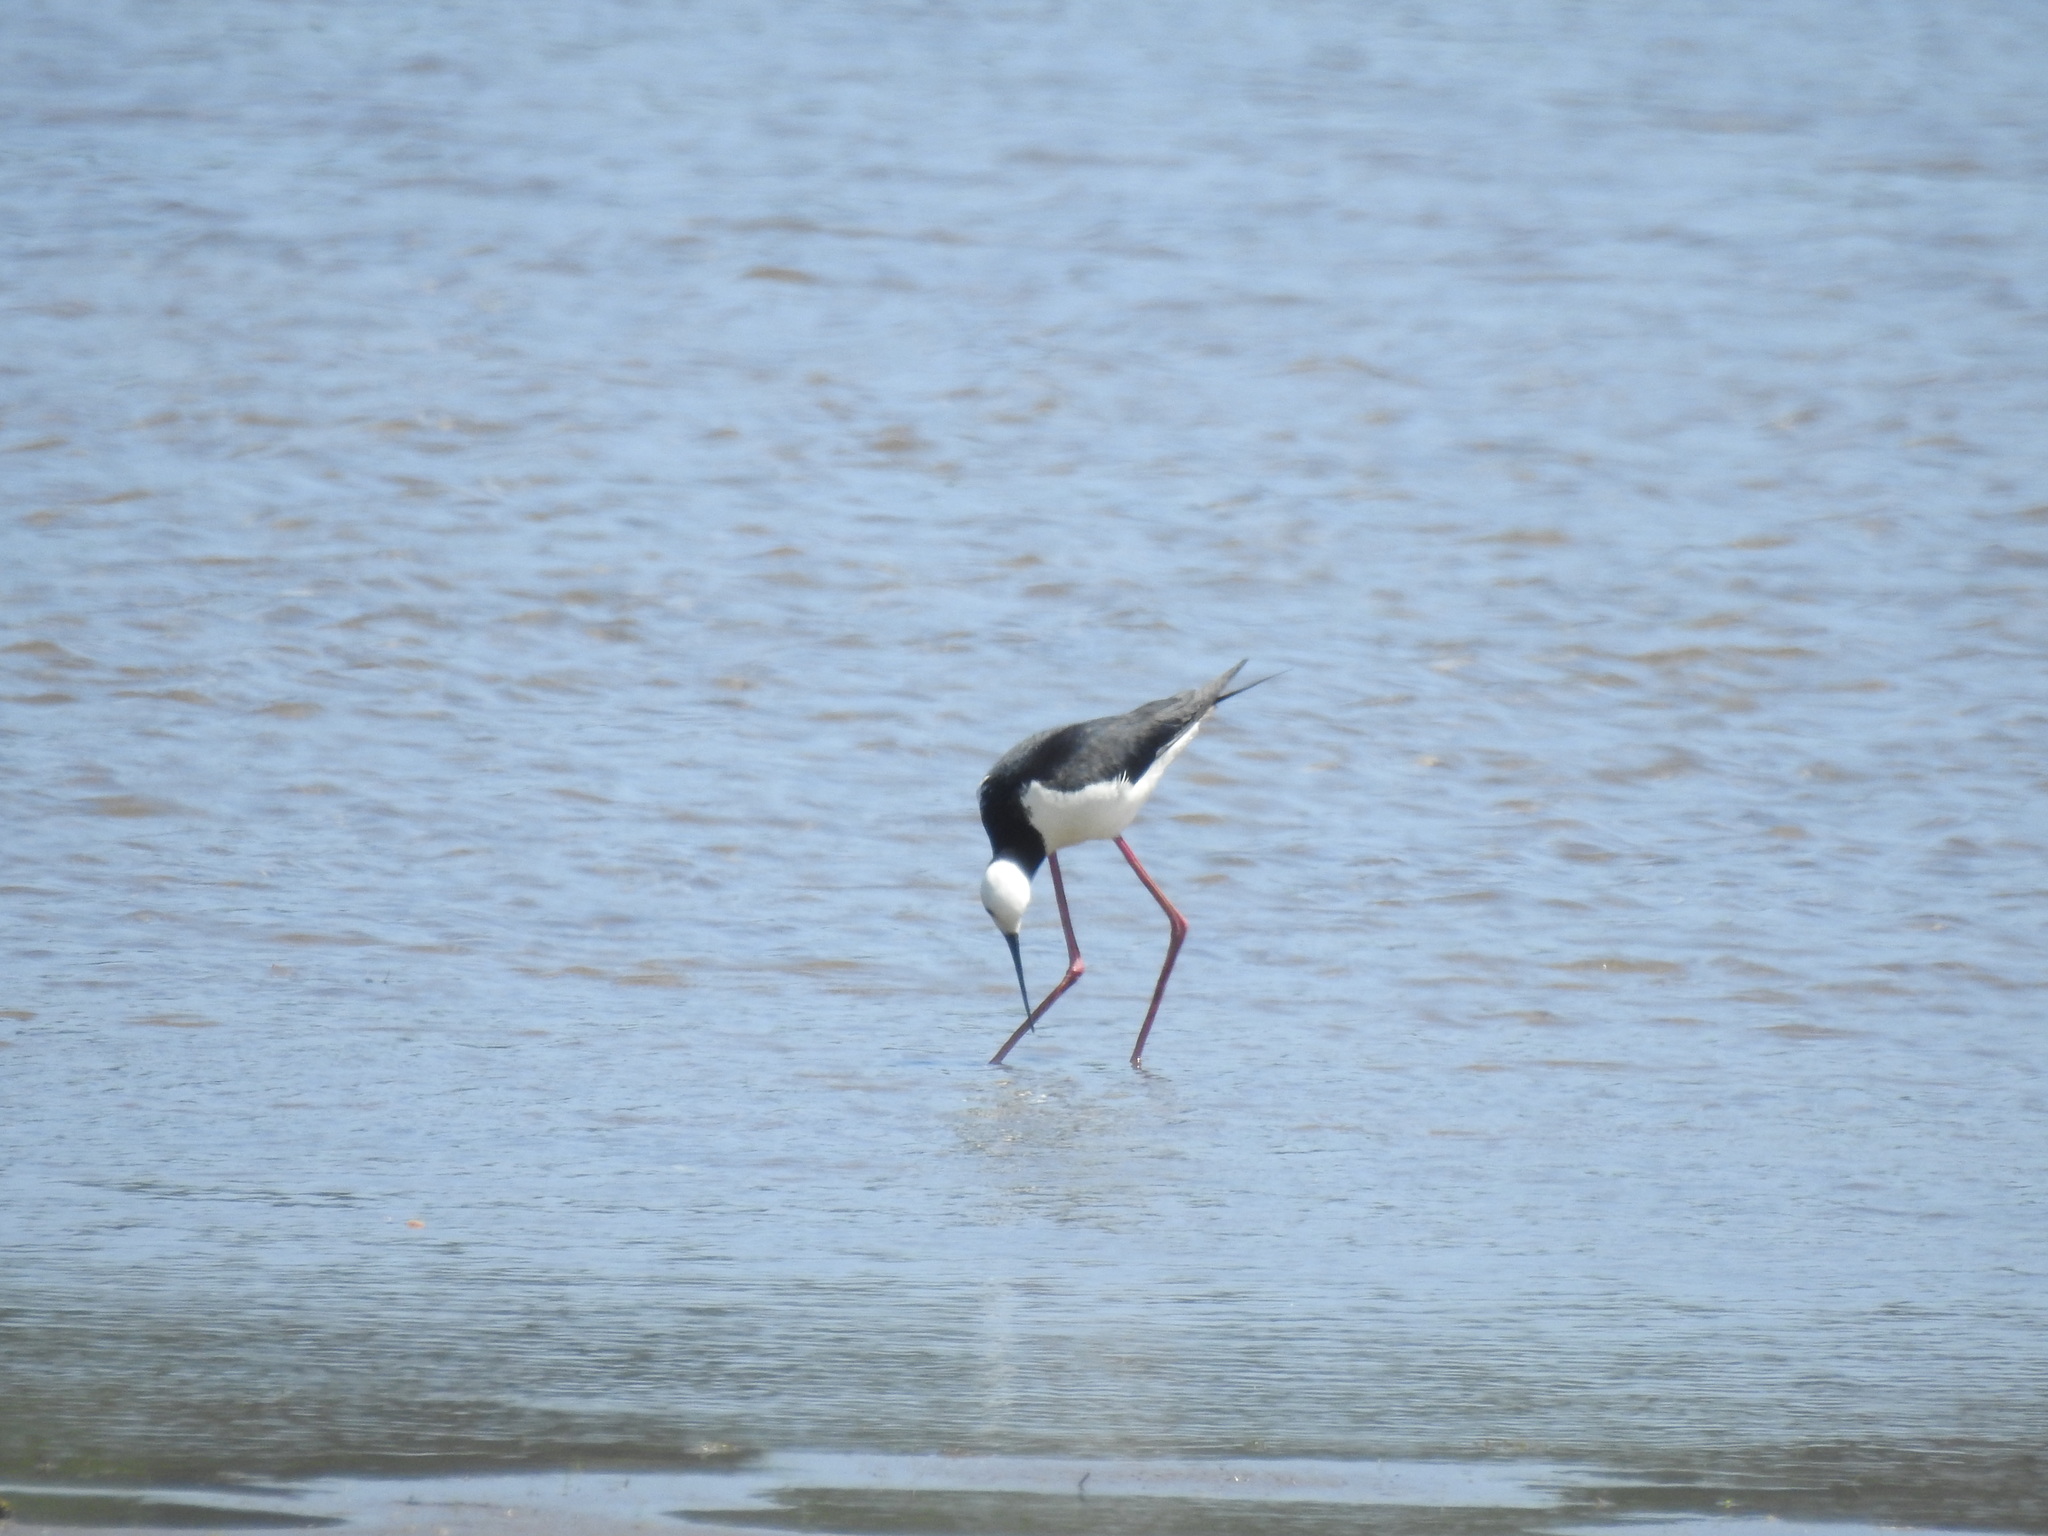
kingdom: Animalia
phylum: Chordata
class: Aves
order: Charadriiformes
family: Recurvirostridae
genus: Himantopus
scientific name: Himantopus leucocephalus
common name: White-headed stilt
